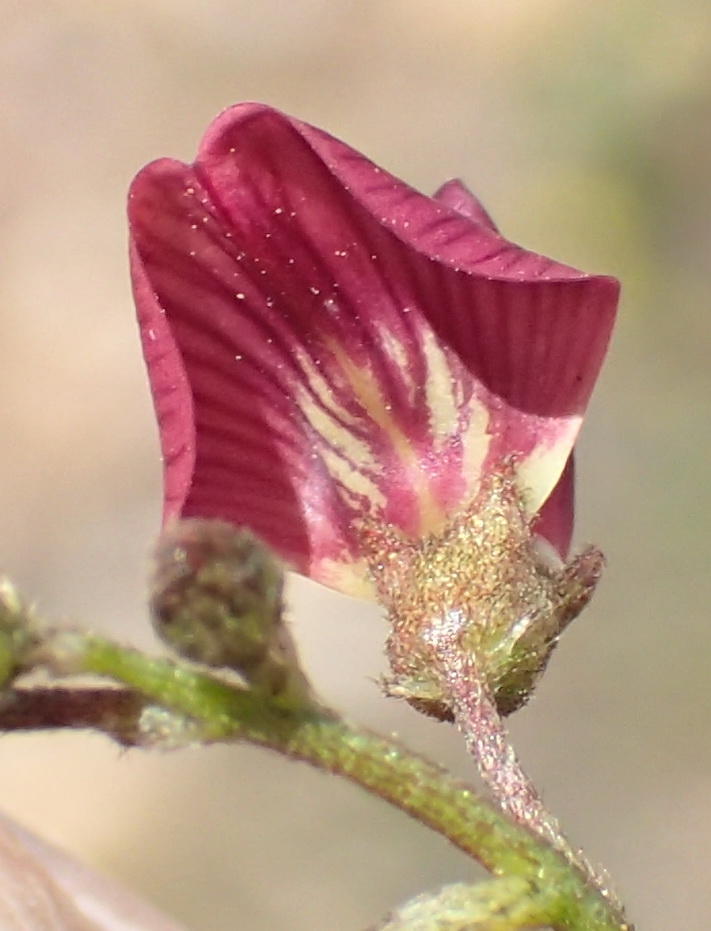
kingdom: Plantae
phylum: Tracheophyta
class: Magnoliopsida
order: Fabales
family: Fabaceae
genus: Lessertia
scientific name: Lessertia diffusa
